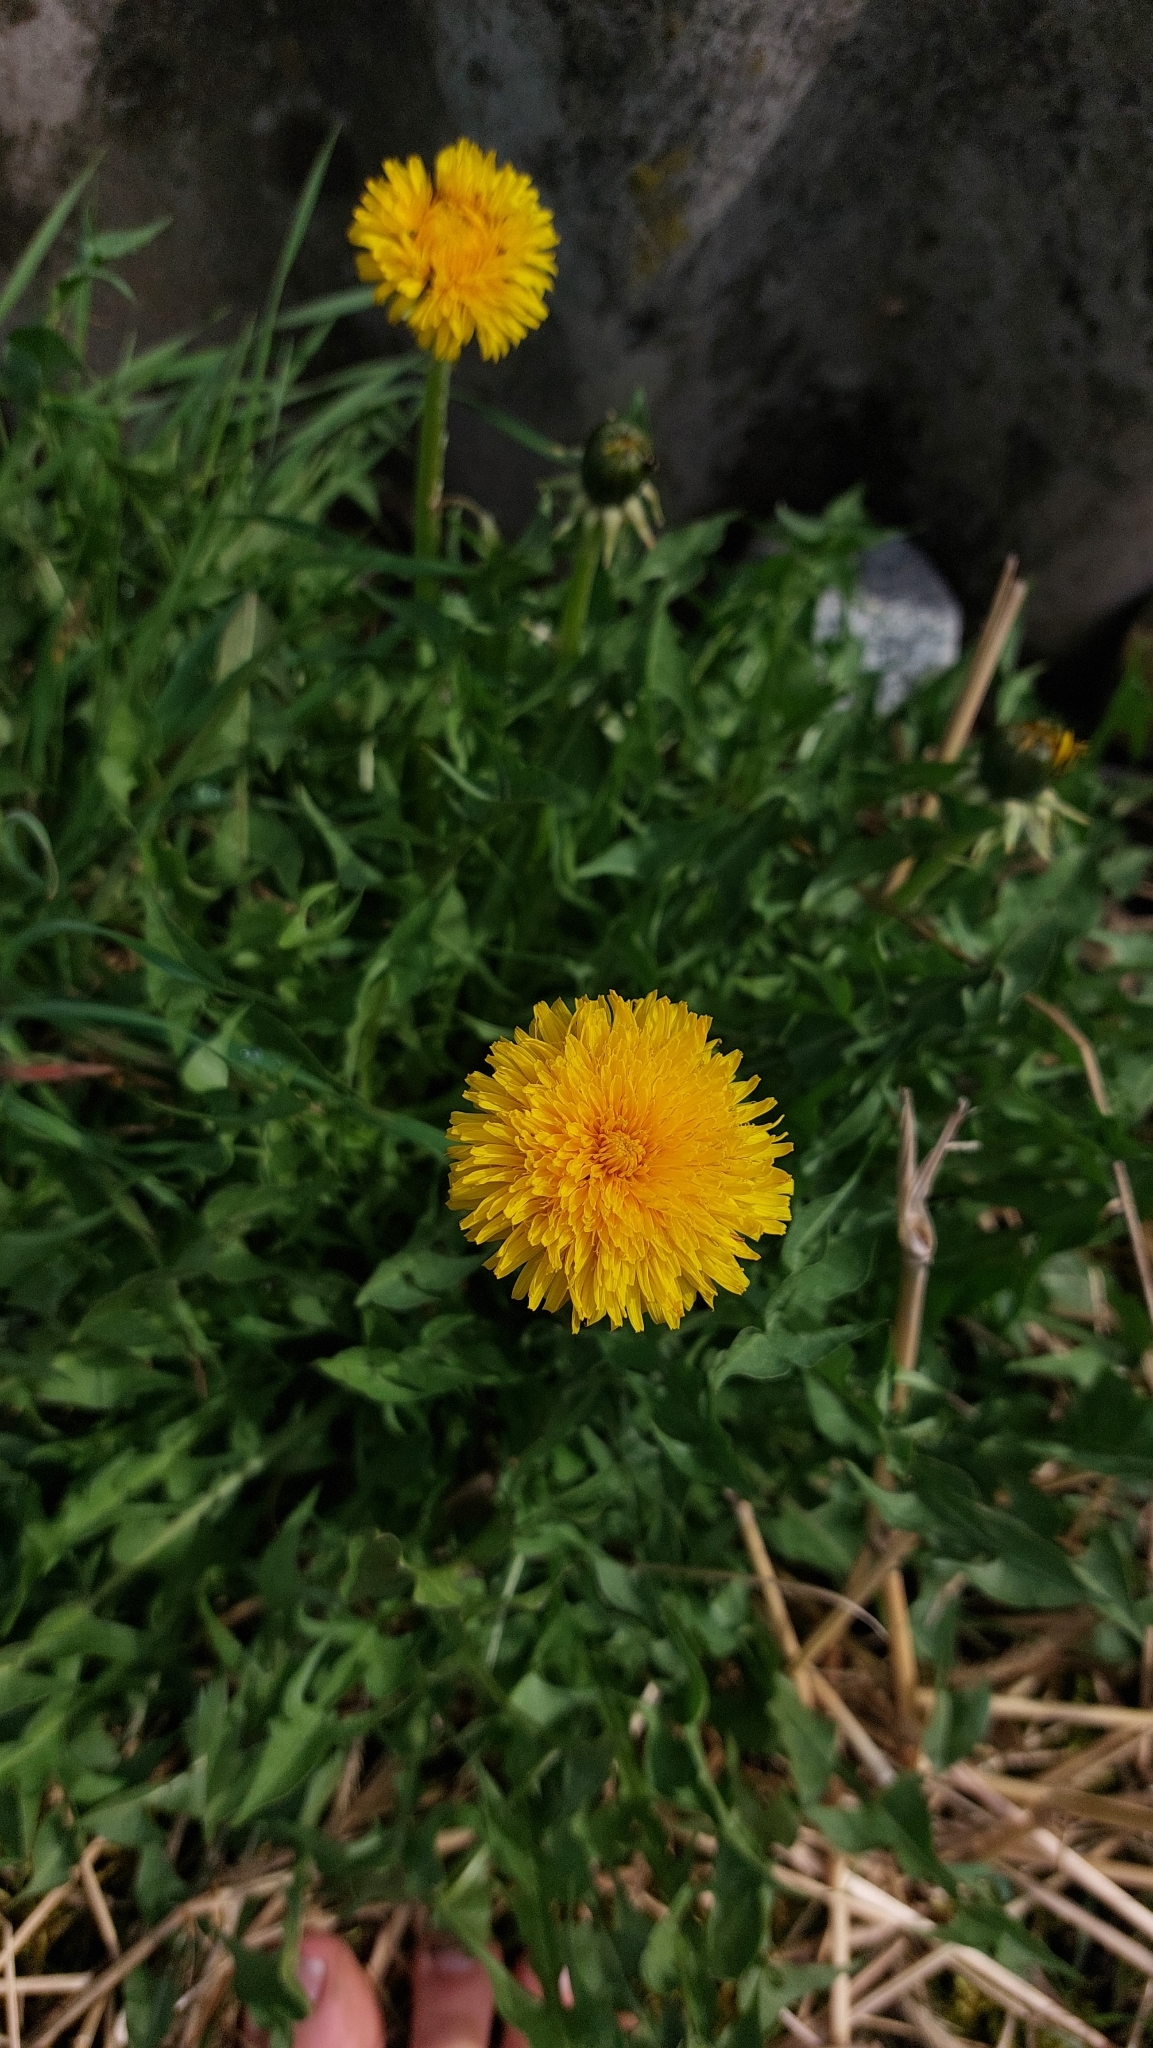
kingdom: Plantae
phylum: Tracheophyta
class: Magnoliopsida
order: Asterales
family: Asteraceae
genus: Taraxacum
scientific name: Taraxacum
